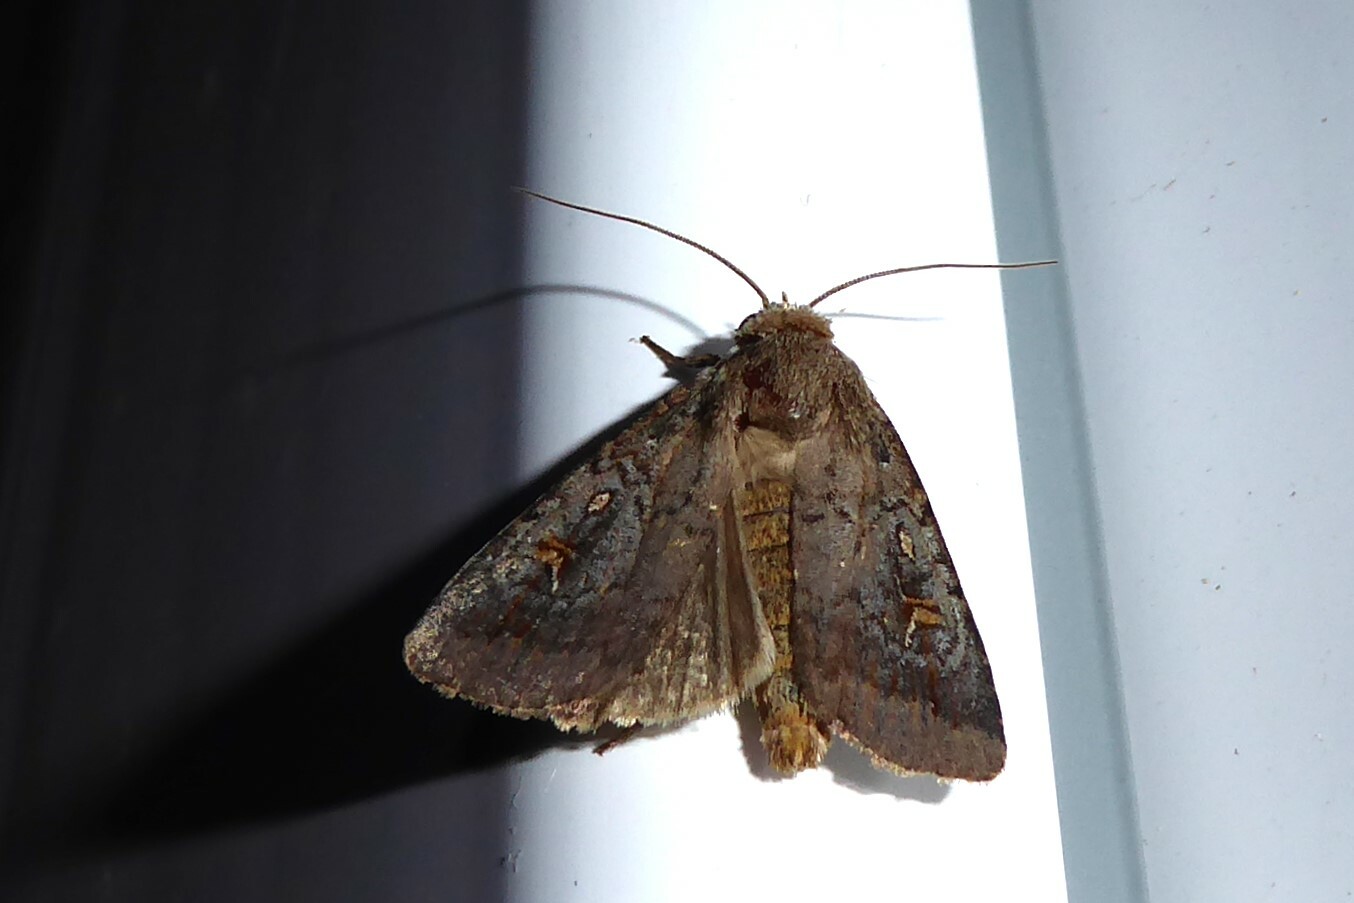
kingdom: Animalia
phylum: Arthropoda
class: Insecta
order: Lepidoptera
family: Noctuidae
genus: Proteuxoa
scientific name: Proteuxoa tetronycha
